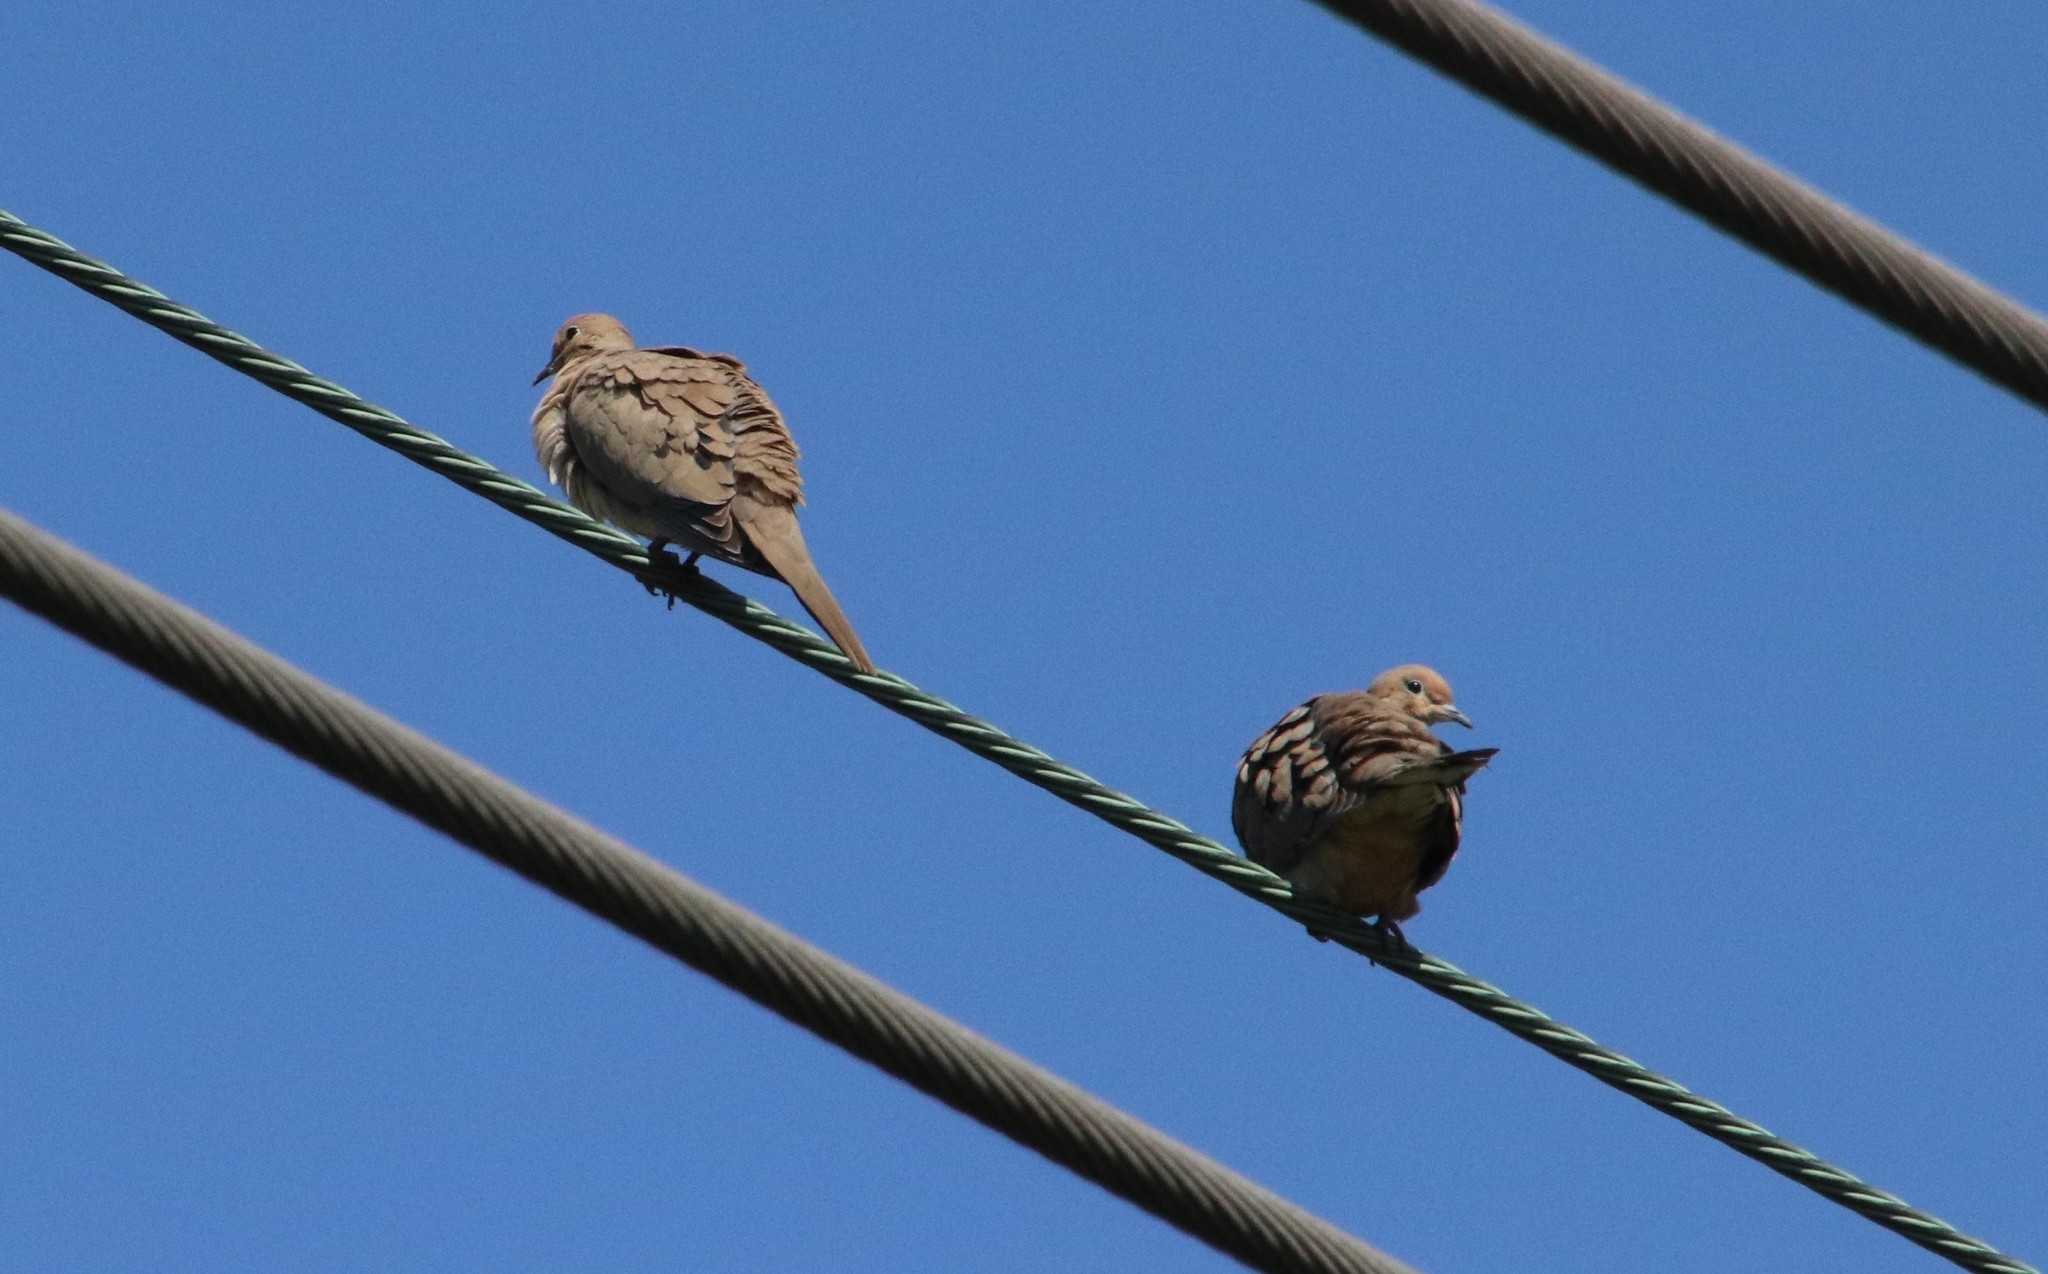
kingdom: Animalia
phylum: Chordata
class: Aves
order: Columbiformes
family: Columbidae
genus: Zenaida
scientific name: Zenaida macroura
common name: Mourning dove
